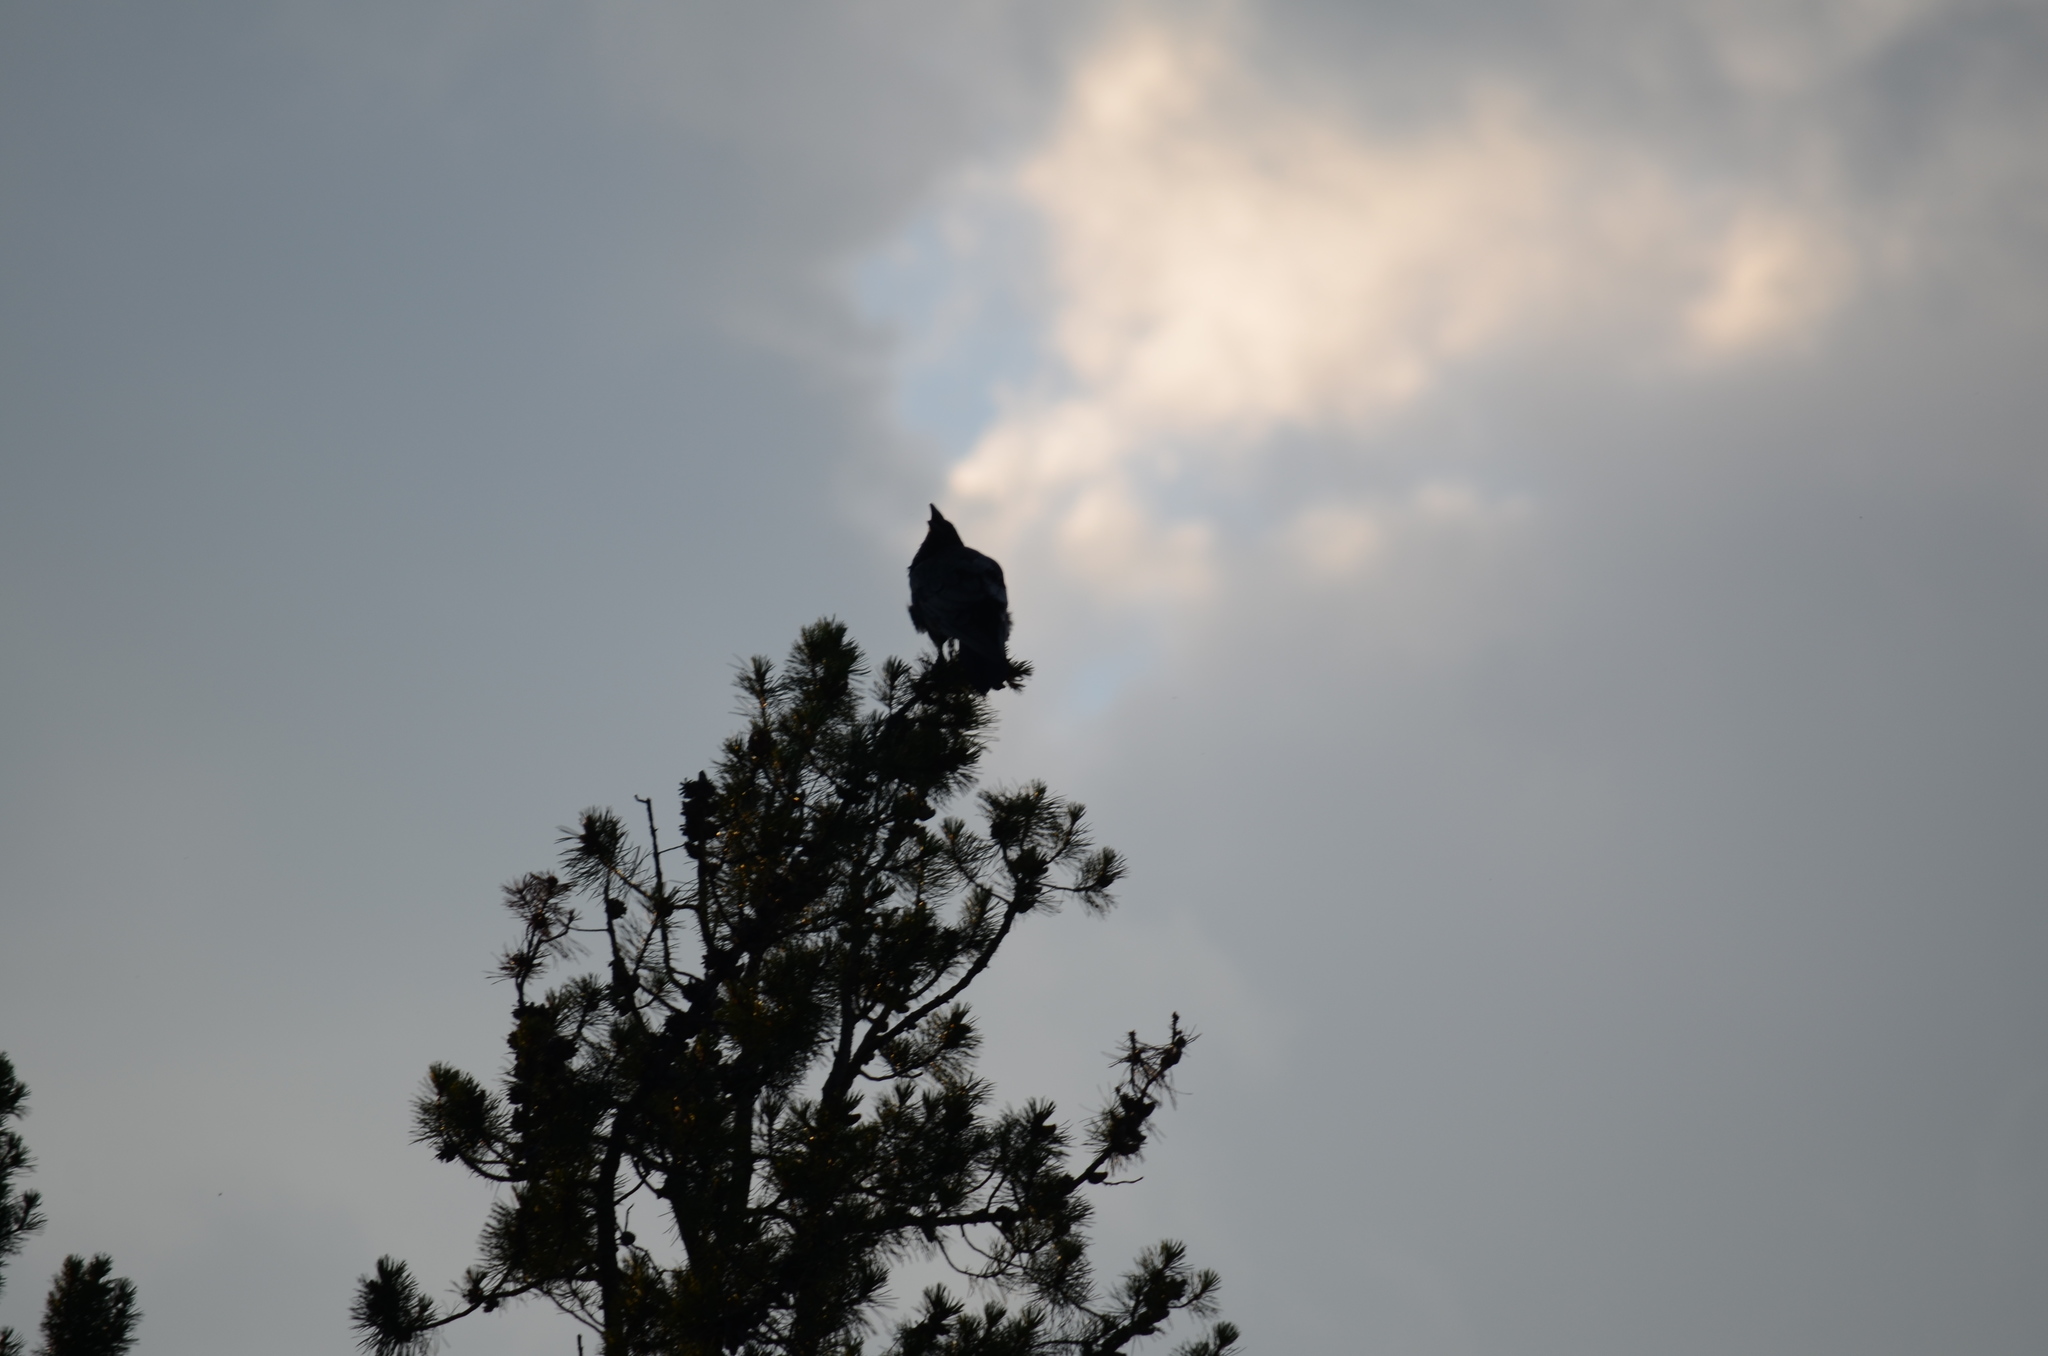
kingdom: Animalia
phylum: Chordata
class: Aves
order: Passeriformes
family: Corvidae
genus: Corvus
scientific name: Corvus corax
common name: Common raven
